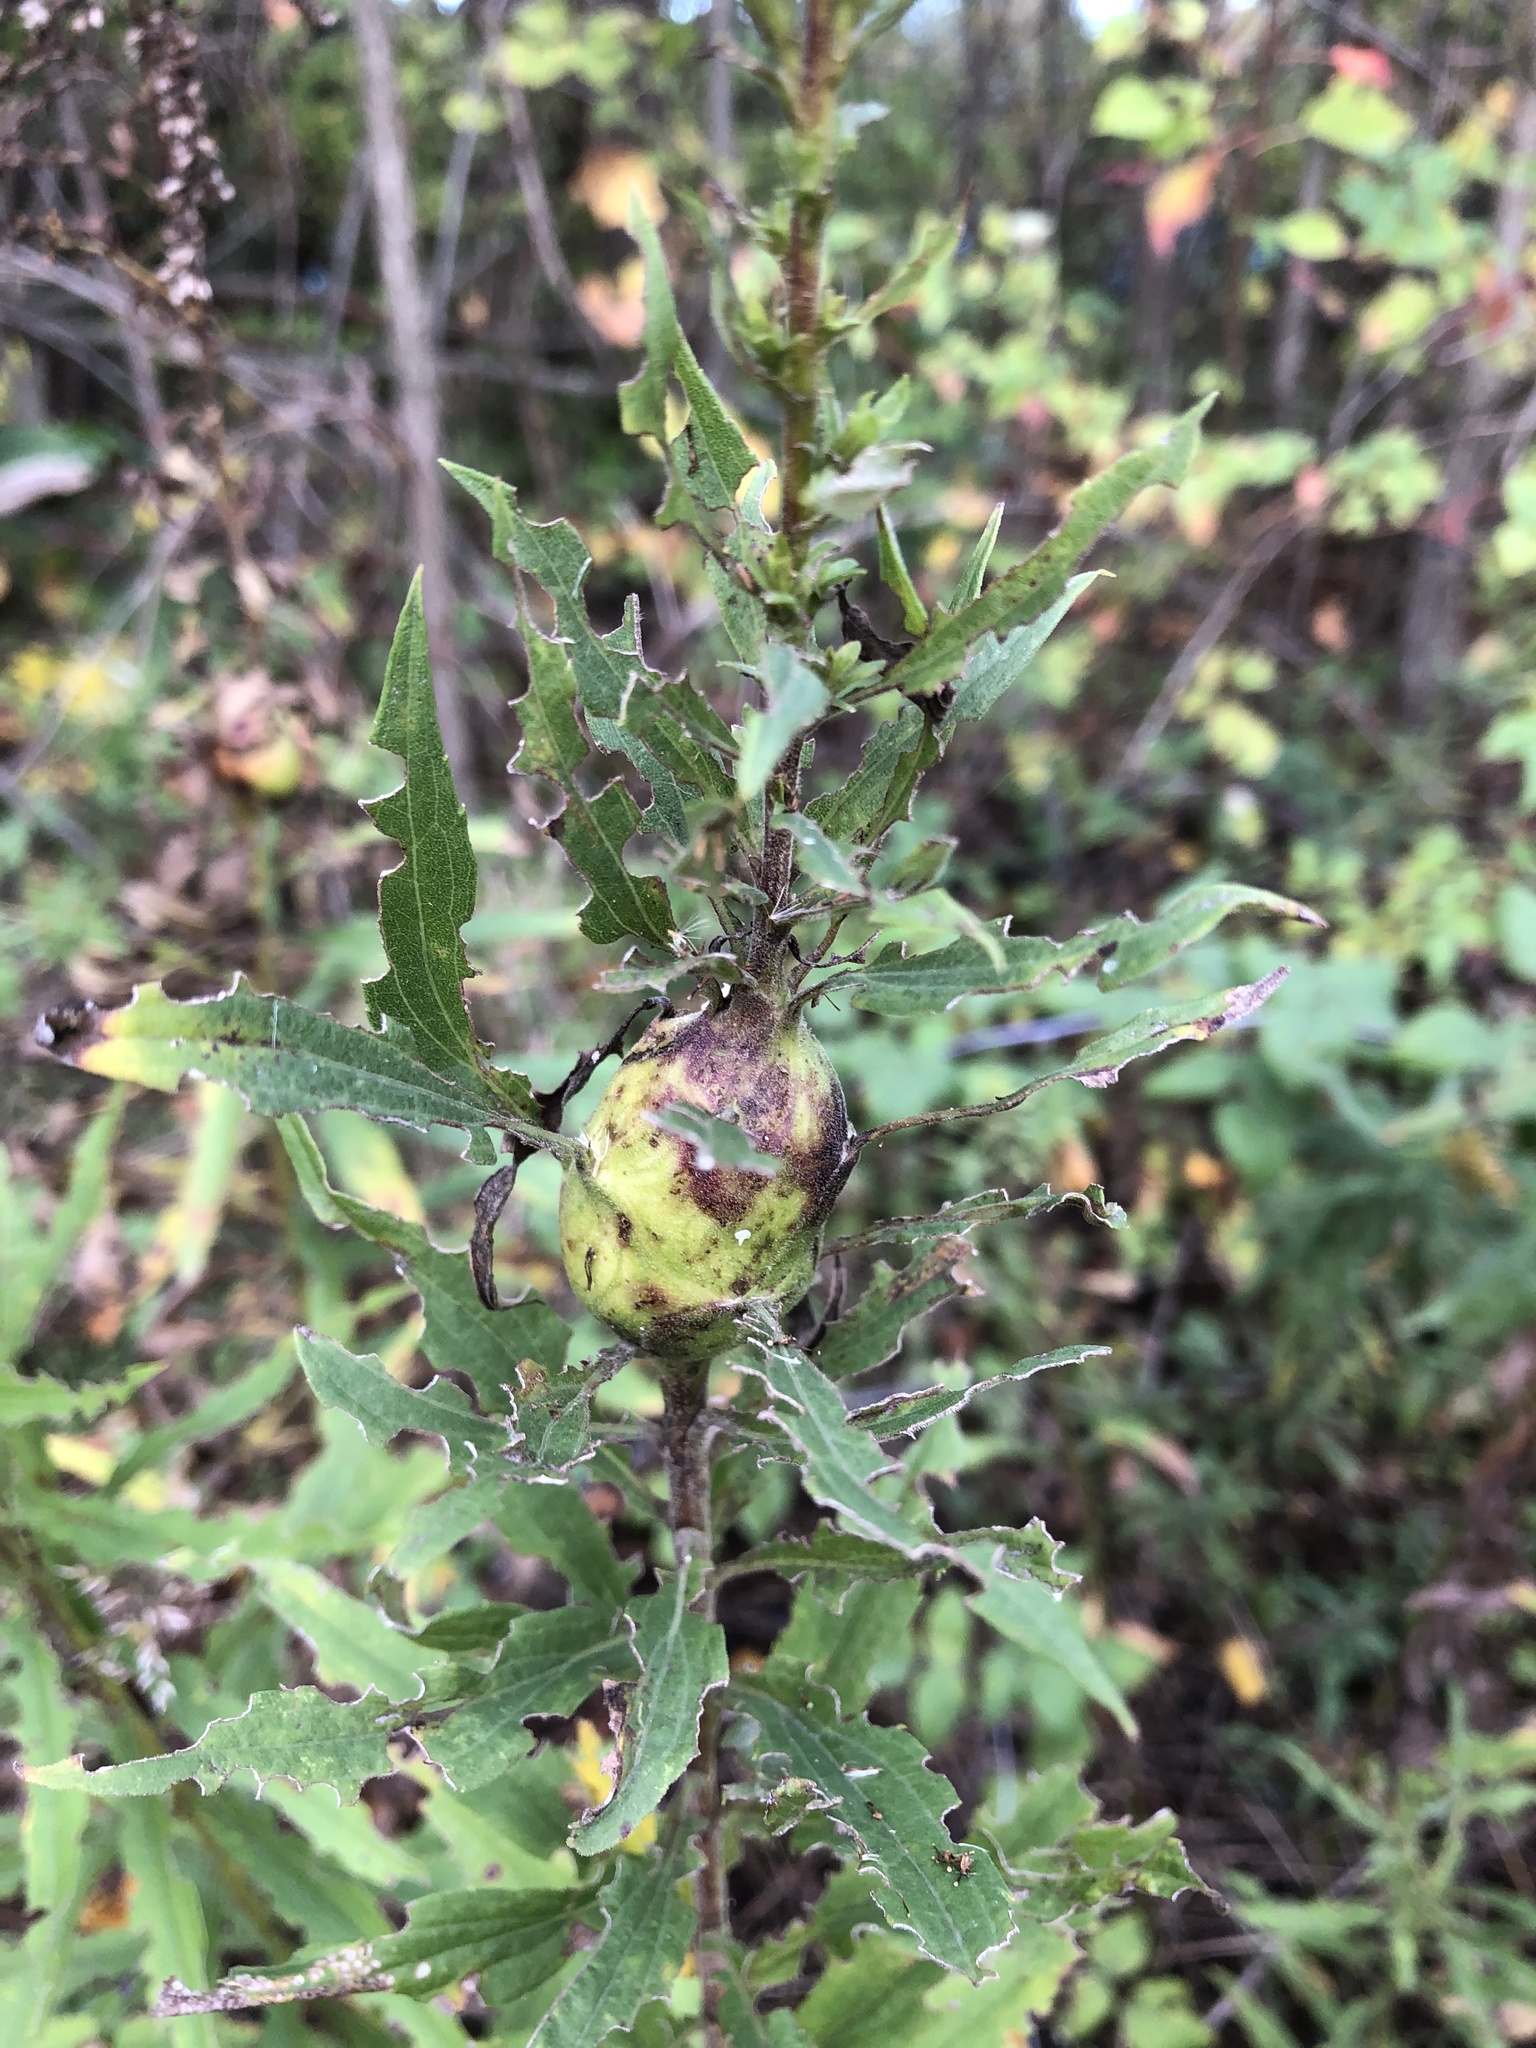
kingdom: Animalia
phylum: Arthropoda
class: Insecta
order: Diptera
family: Tephritidae
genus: Eurosta
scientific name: Eurosta solidaginis
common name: Goldenrod gall fly
